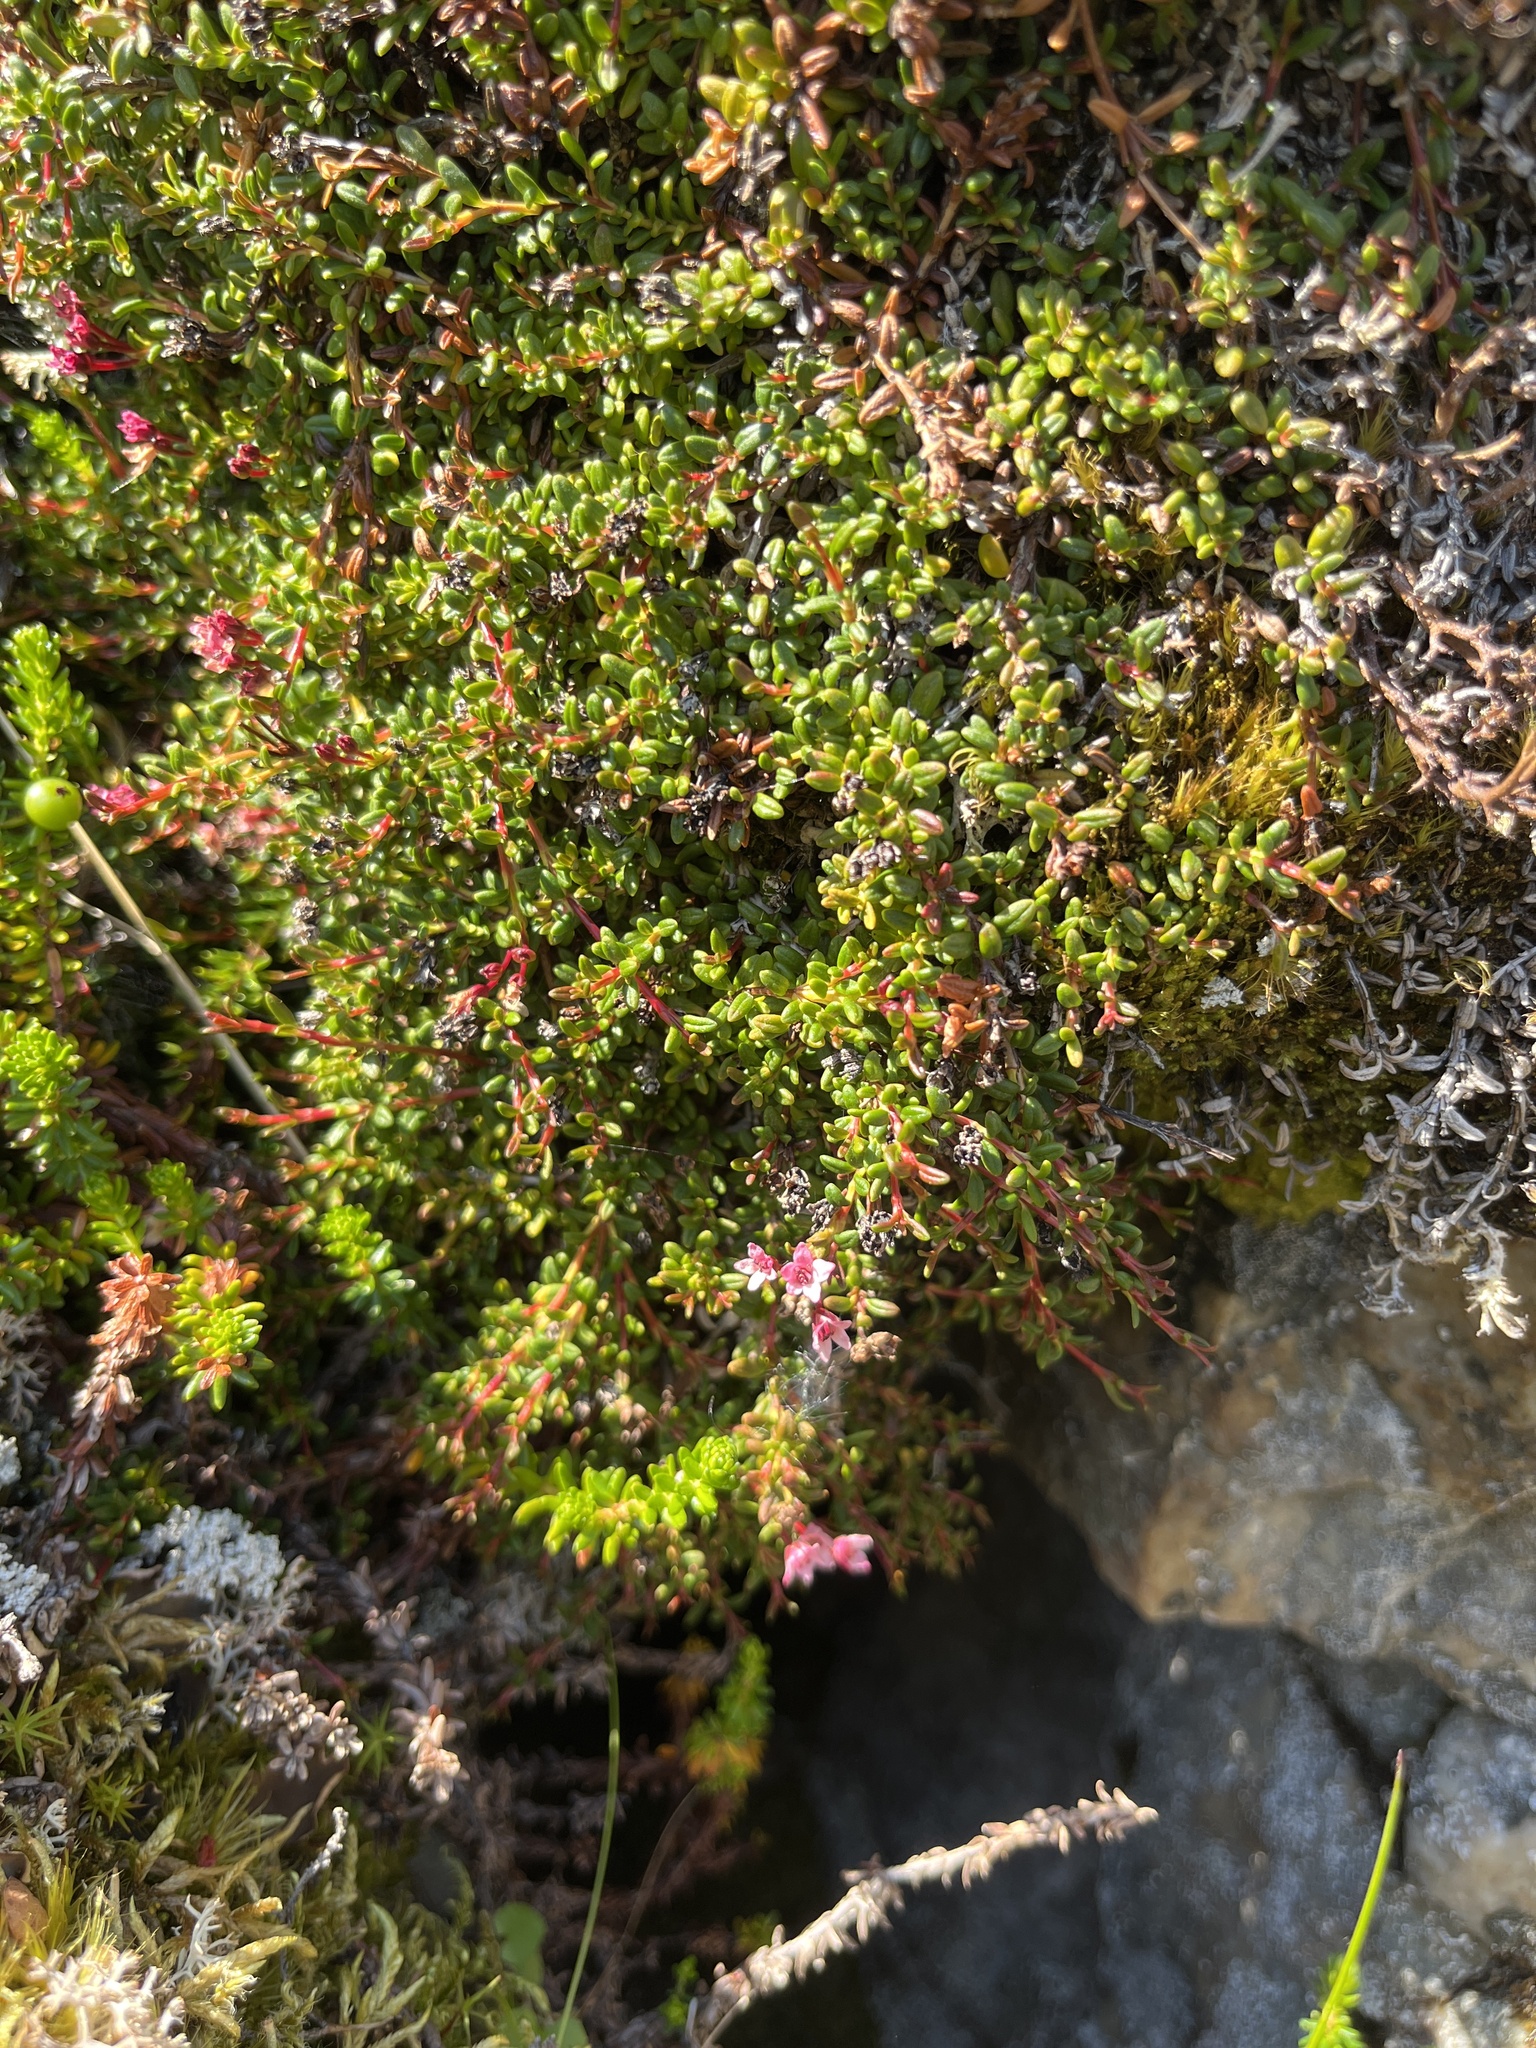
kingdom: Plantae
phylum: Tracheophyta
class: Magnoliopsida
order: Ericales
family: Ericaceae
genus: Kalmia
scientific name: Kalmia procumbens
